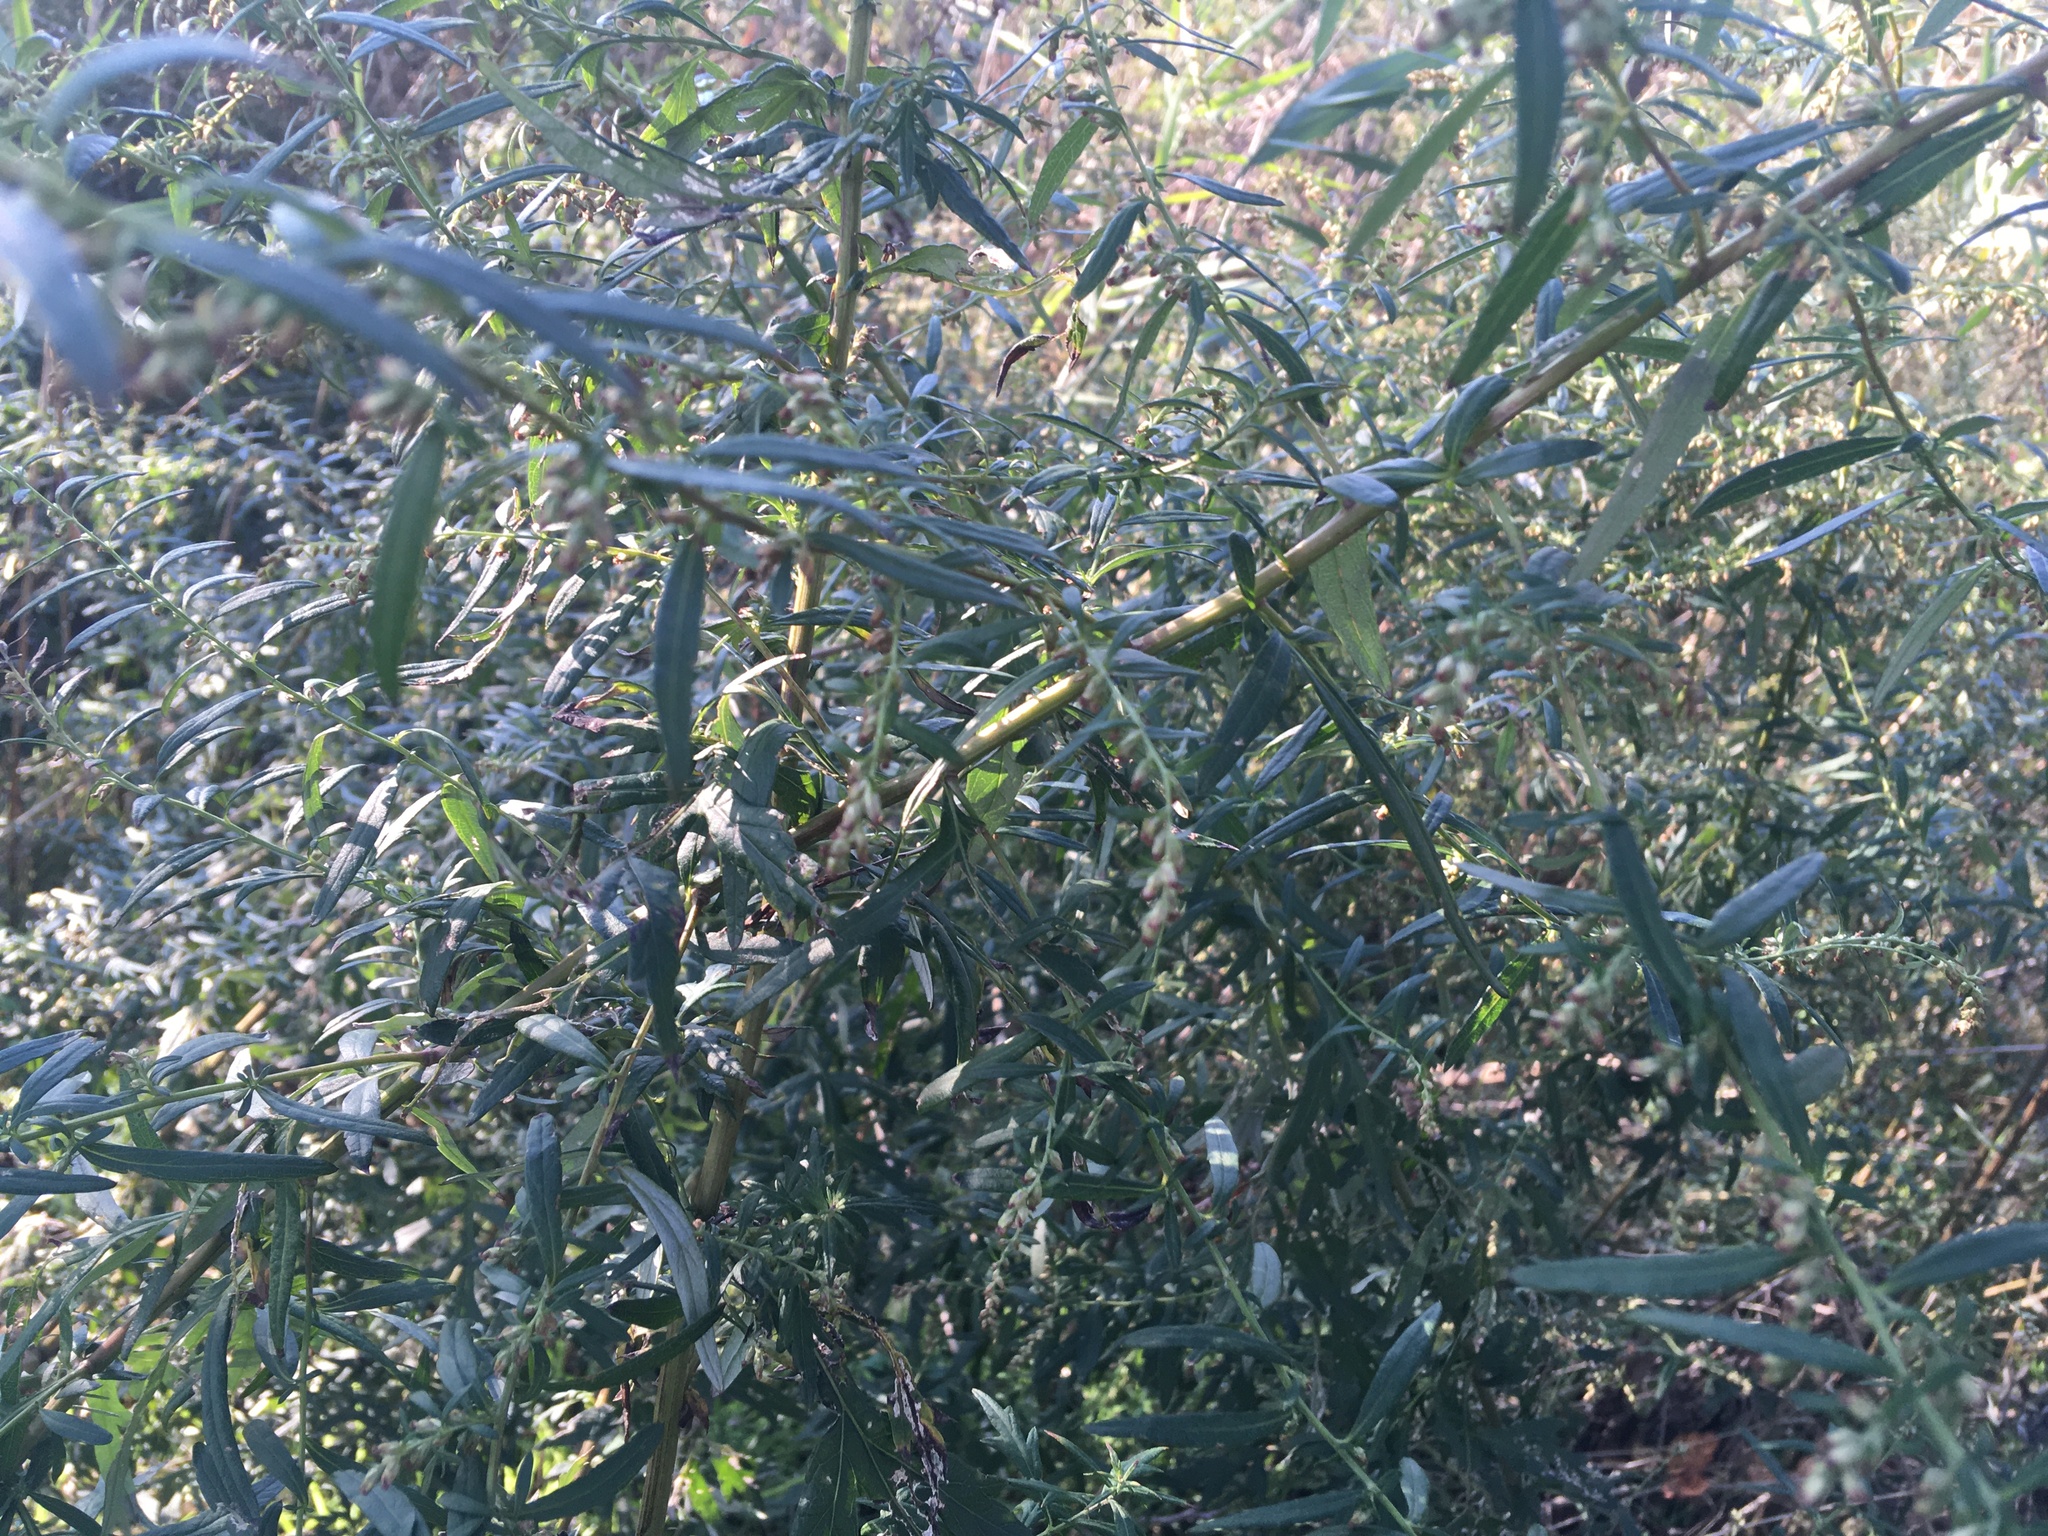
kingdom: Plantae
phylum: Tracheophyta
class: Magnoliopsida
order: Asterales
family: Asteraceae
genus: Artemisia
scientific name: Artemisia vulgaris
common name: Mugwort
